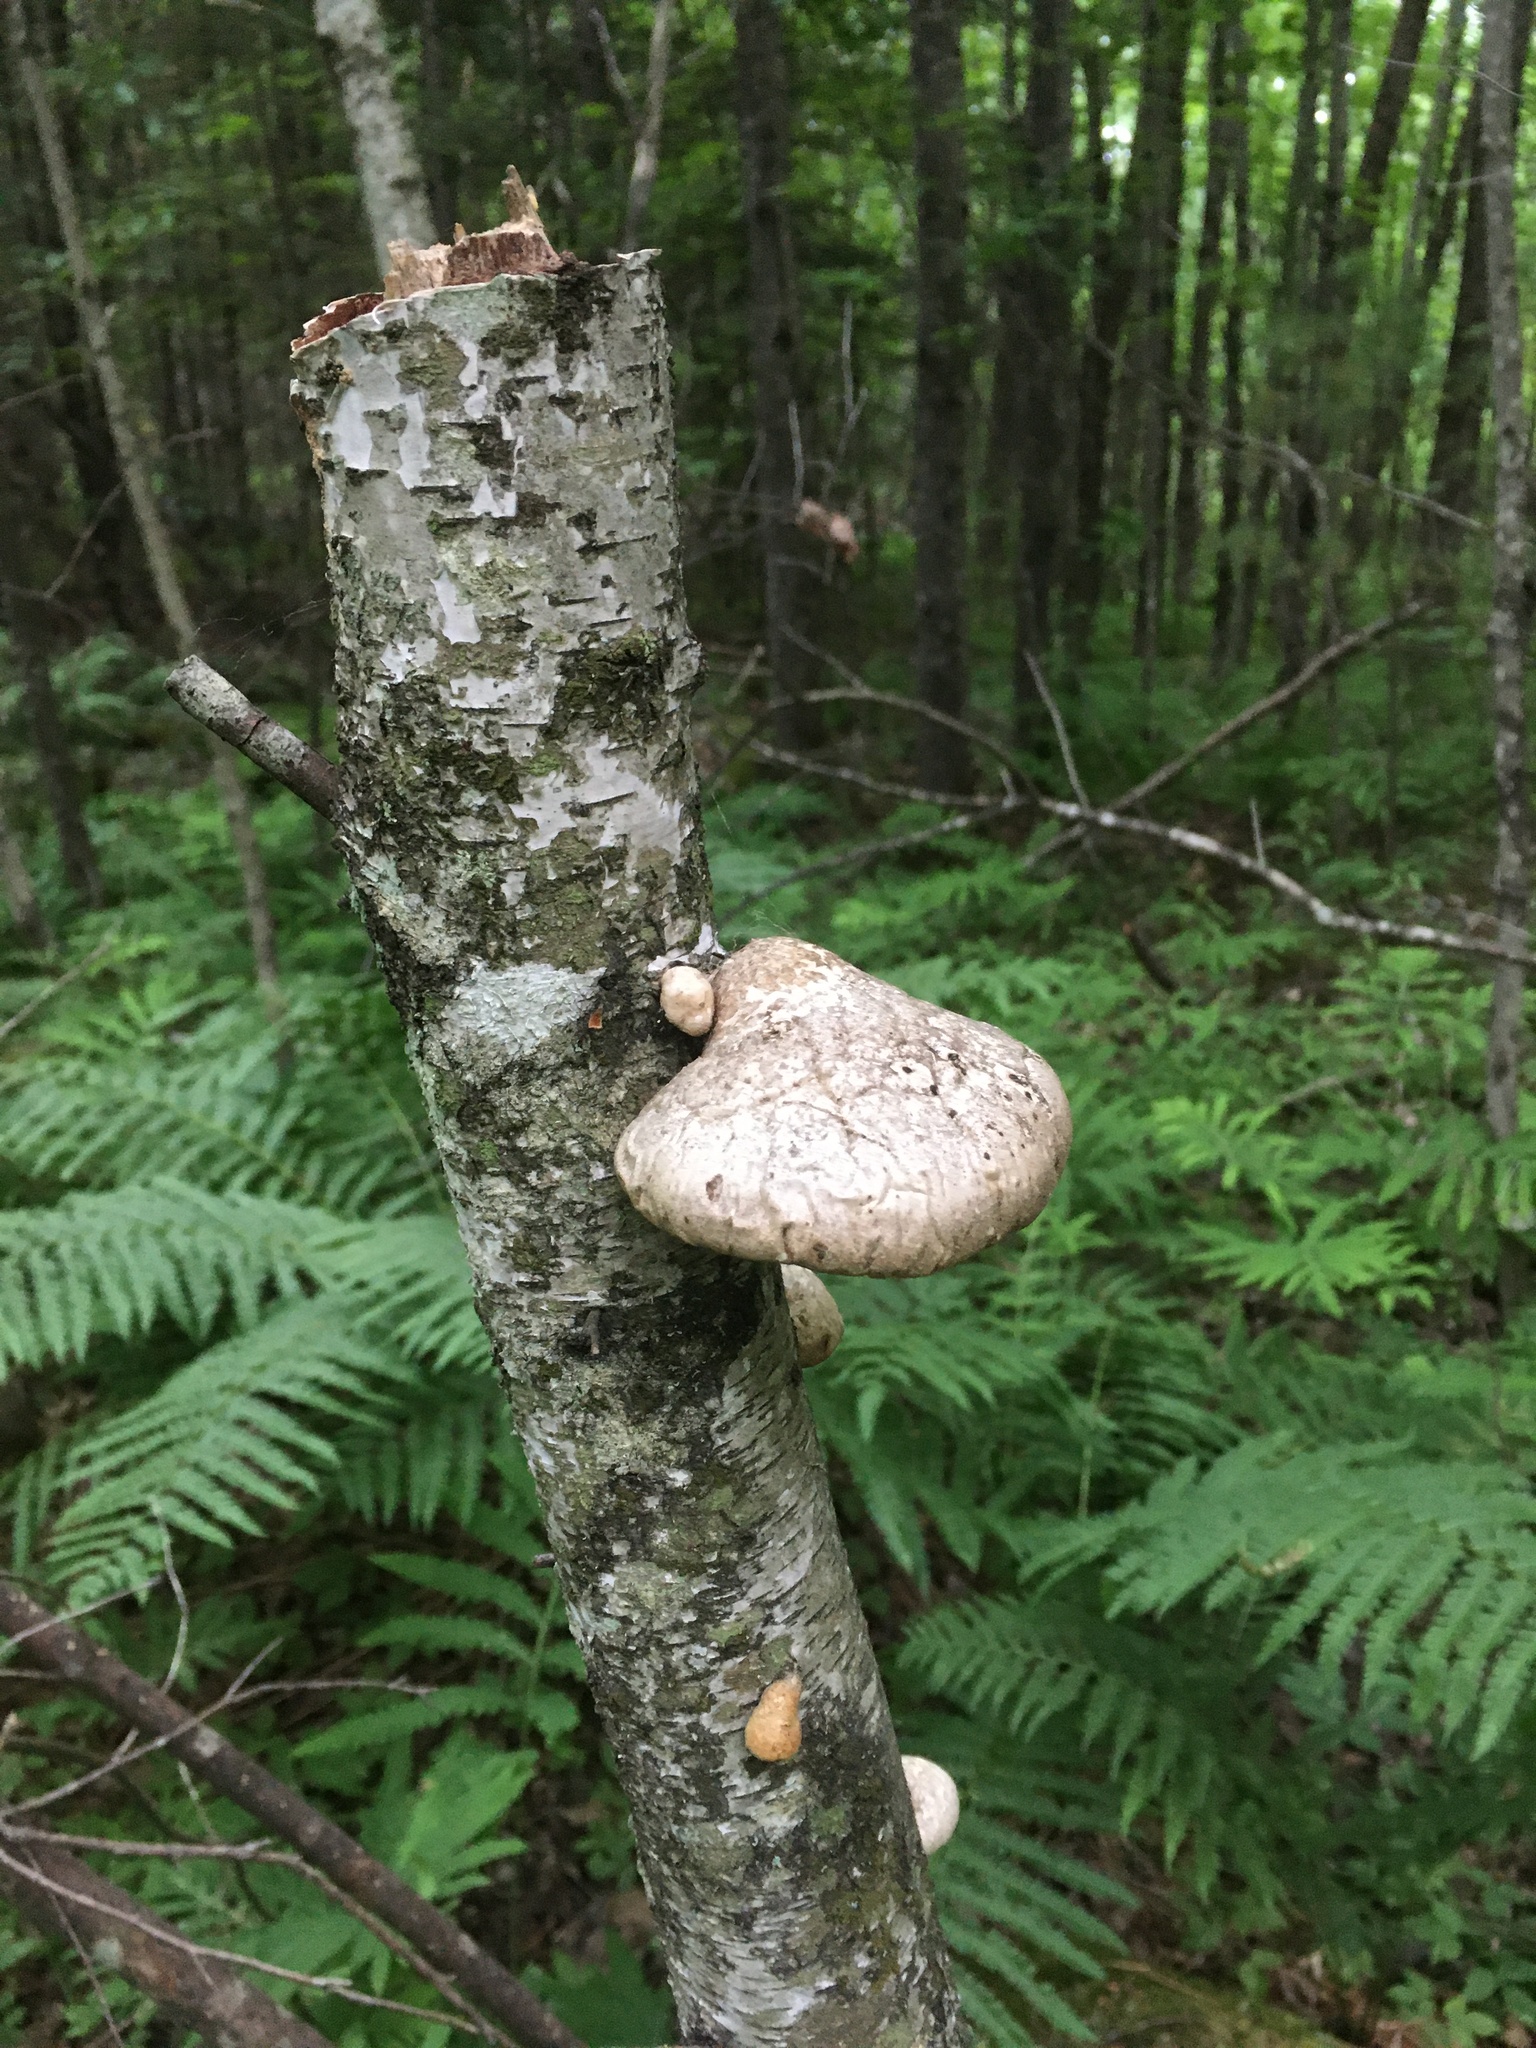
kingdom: Fungi
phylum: Basidiomycota
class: Agaricomycetes
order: Polyporales
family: Fomitopsidaceae
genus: Fomitopsis
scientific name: Fomitopsis betulina
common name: Birch polypore
